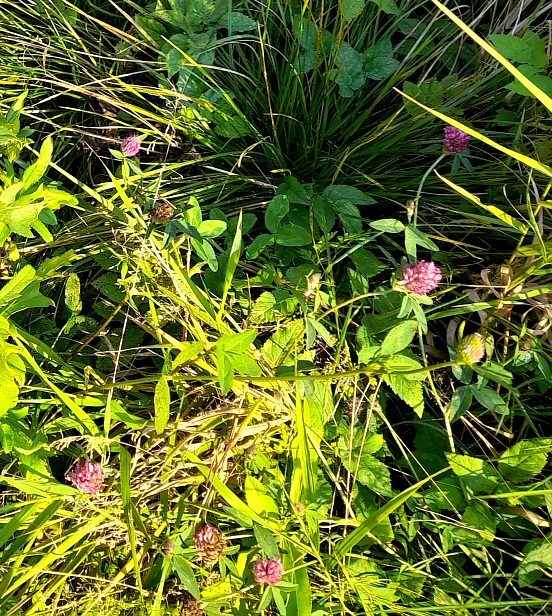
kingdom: Plantae
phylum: Tracheophyta
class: Magnoliopsida
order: Fabales
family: Fabaceae
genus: Trifolium
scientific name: Trifolium pratense
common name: Red clover
